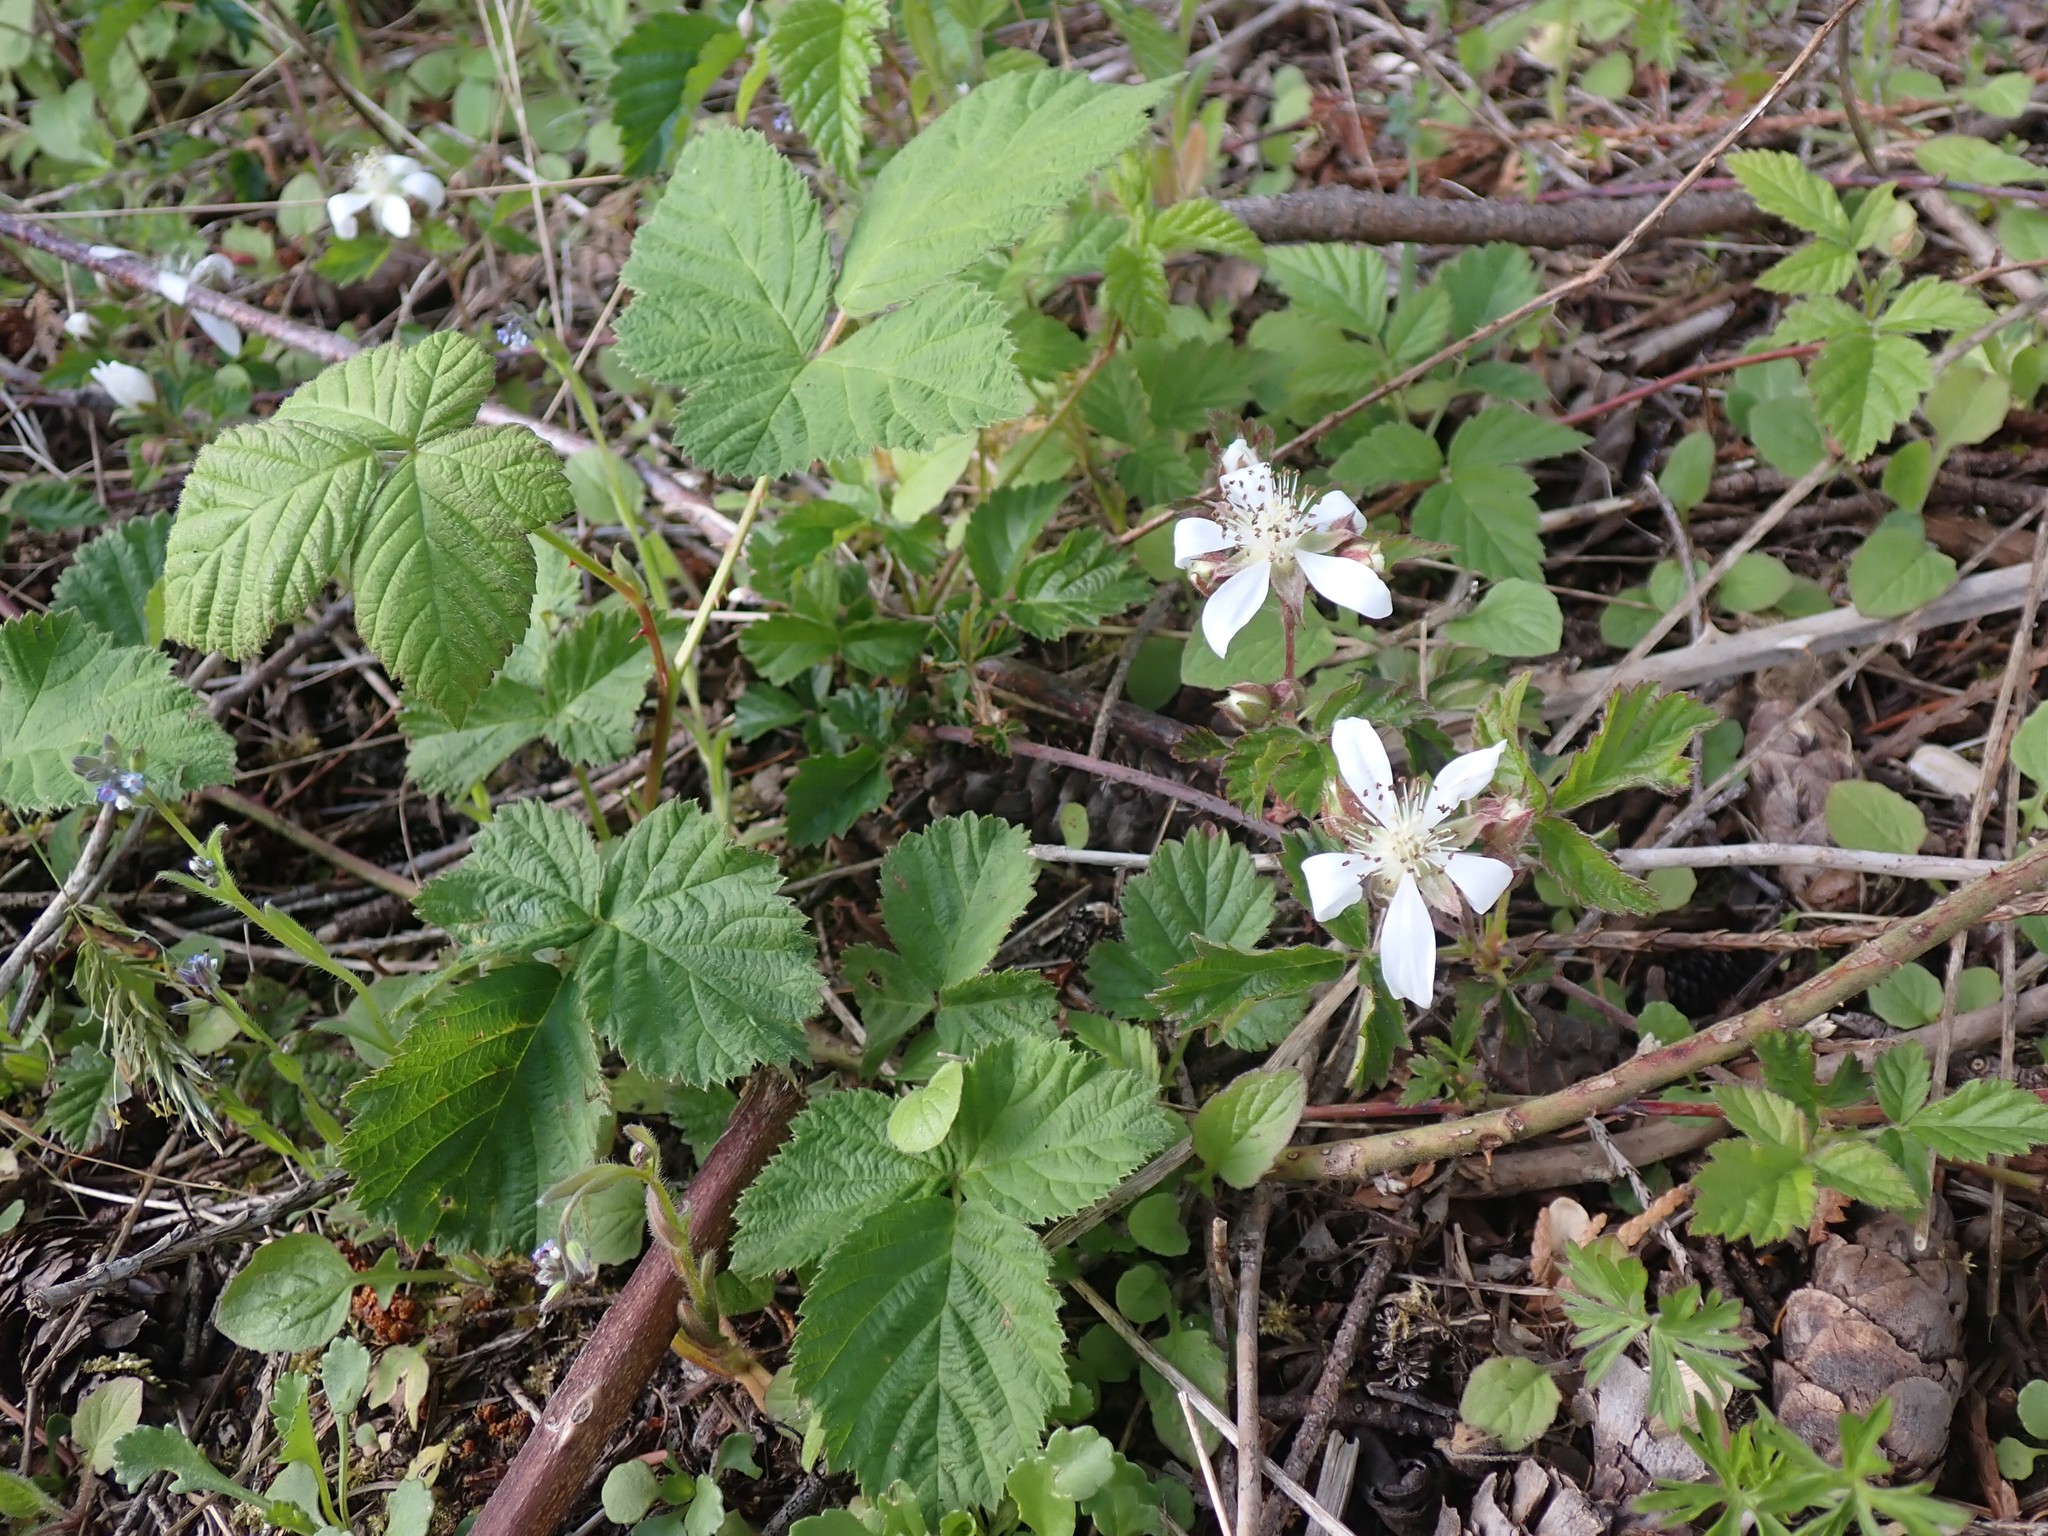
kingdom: Plantae
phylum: Tracheophyta
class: Magnoliopsida
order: Rosales
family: Rosaceae
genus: Rubus
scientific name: Rubus ursinus
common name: Pacific blackberry
